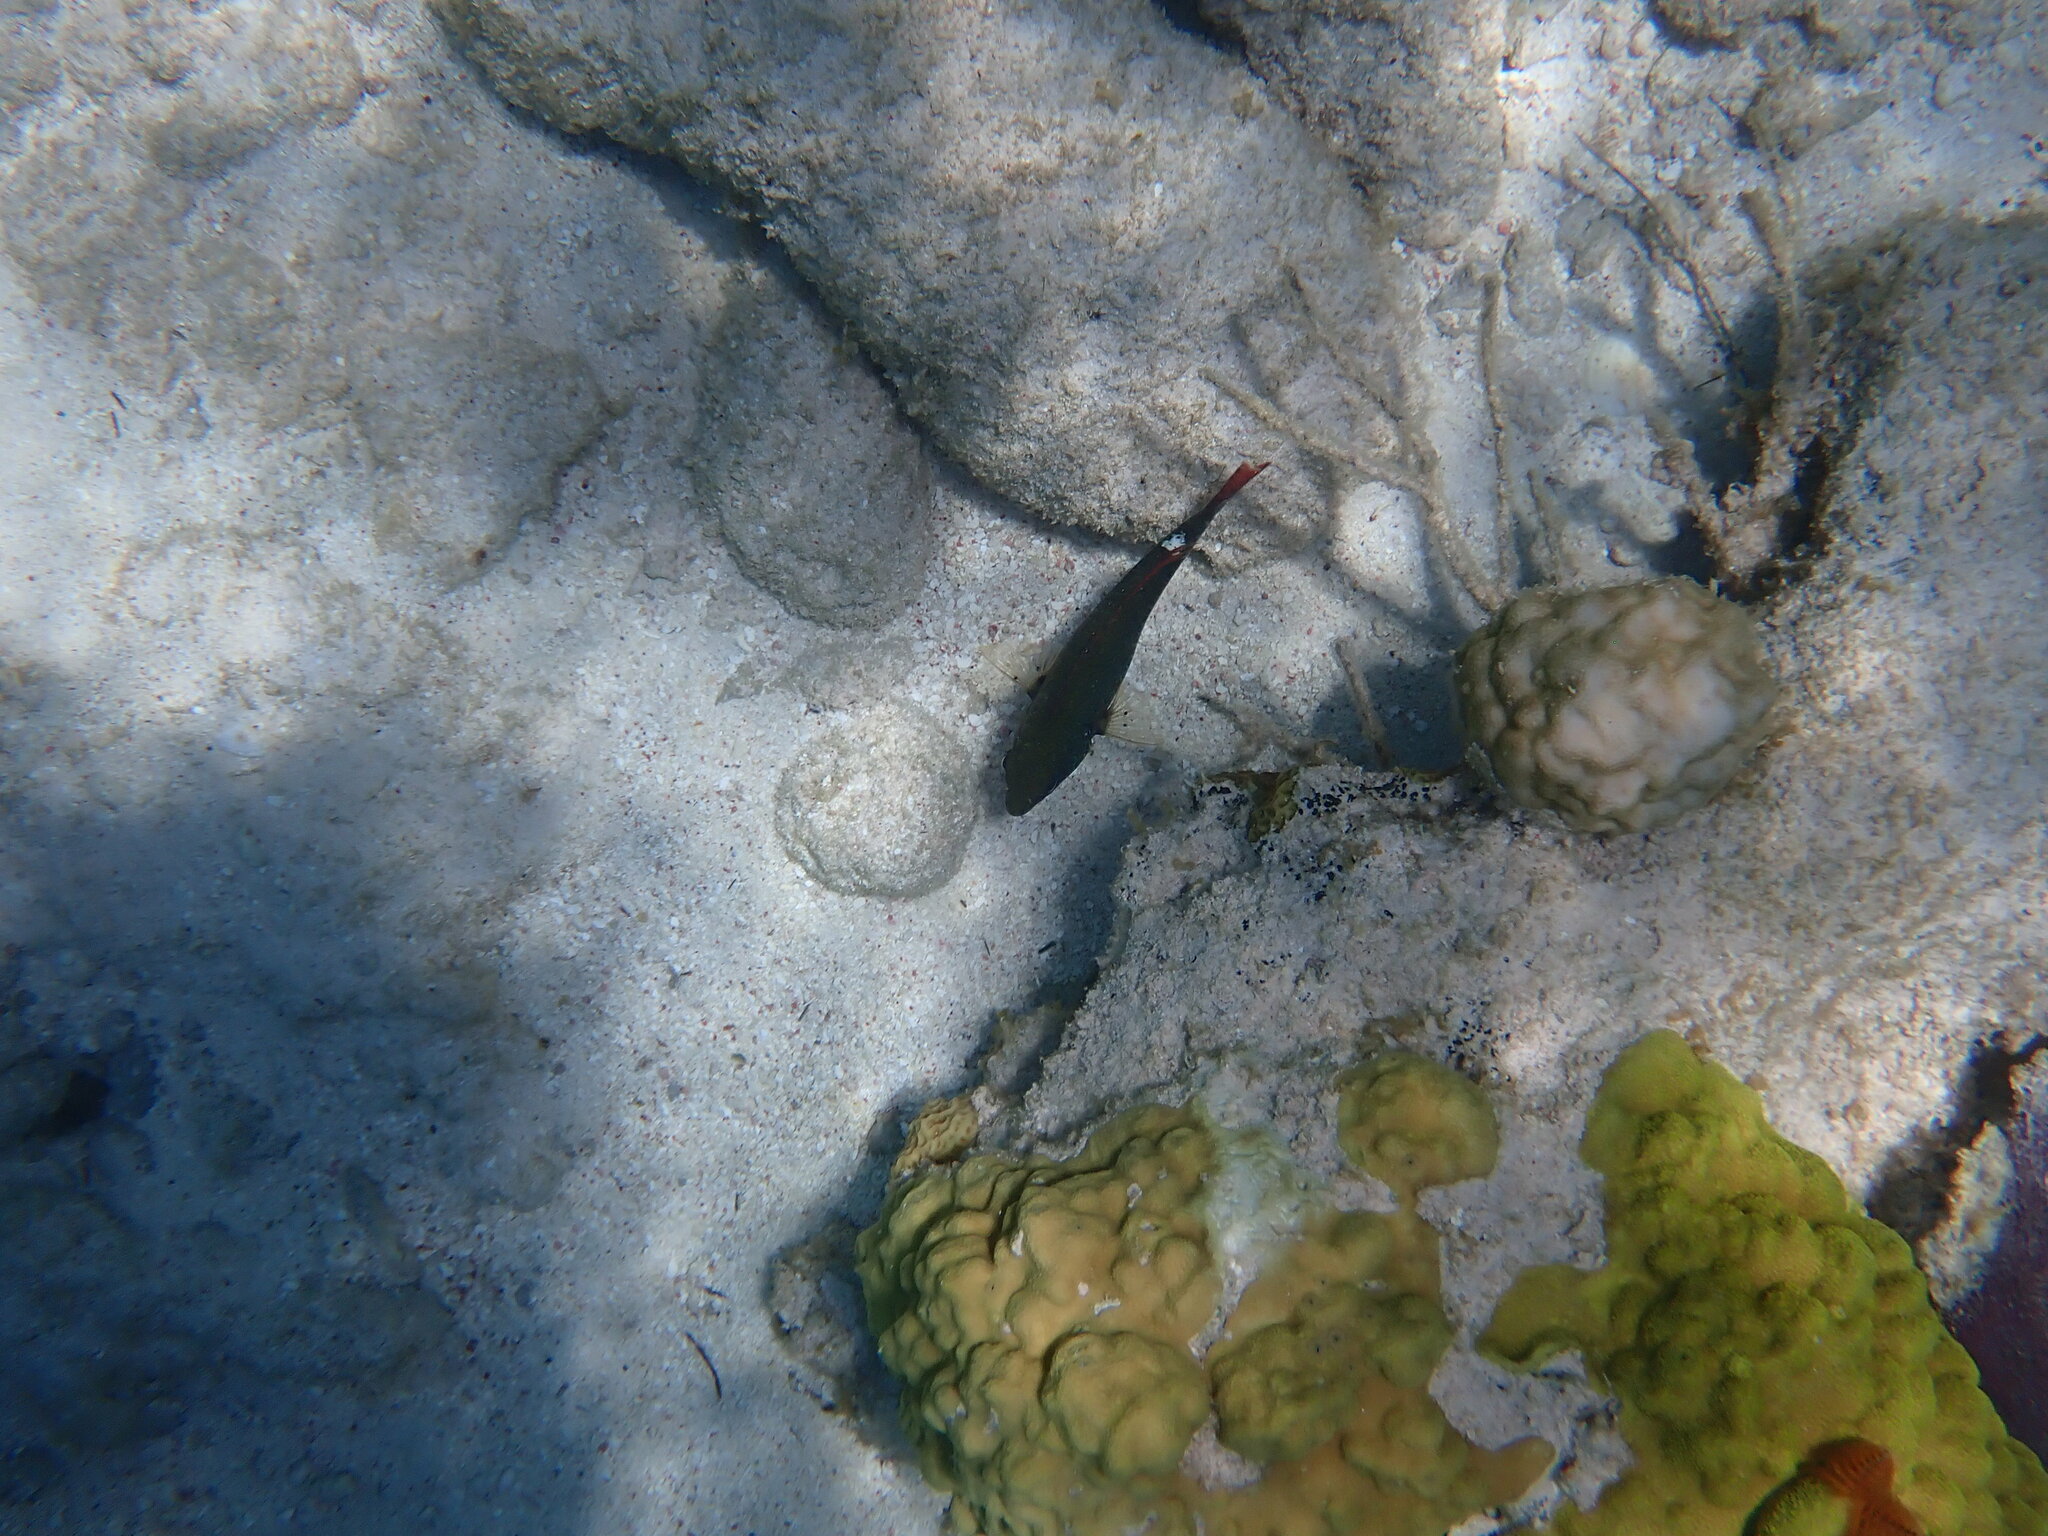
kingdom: Animalia
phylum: Chordata
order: Perciformes
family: Scaridae
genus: Sparisoma
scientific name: Sparisoma aurofrenatum
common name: Redband parrotfish
